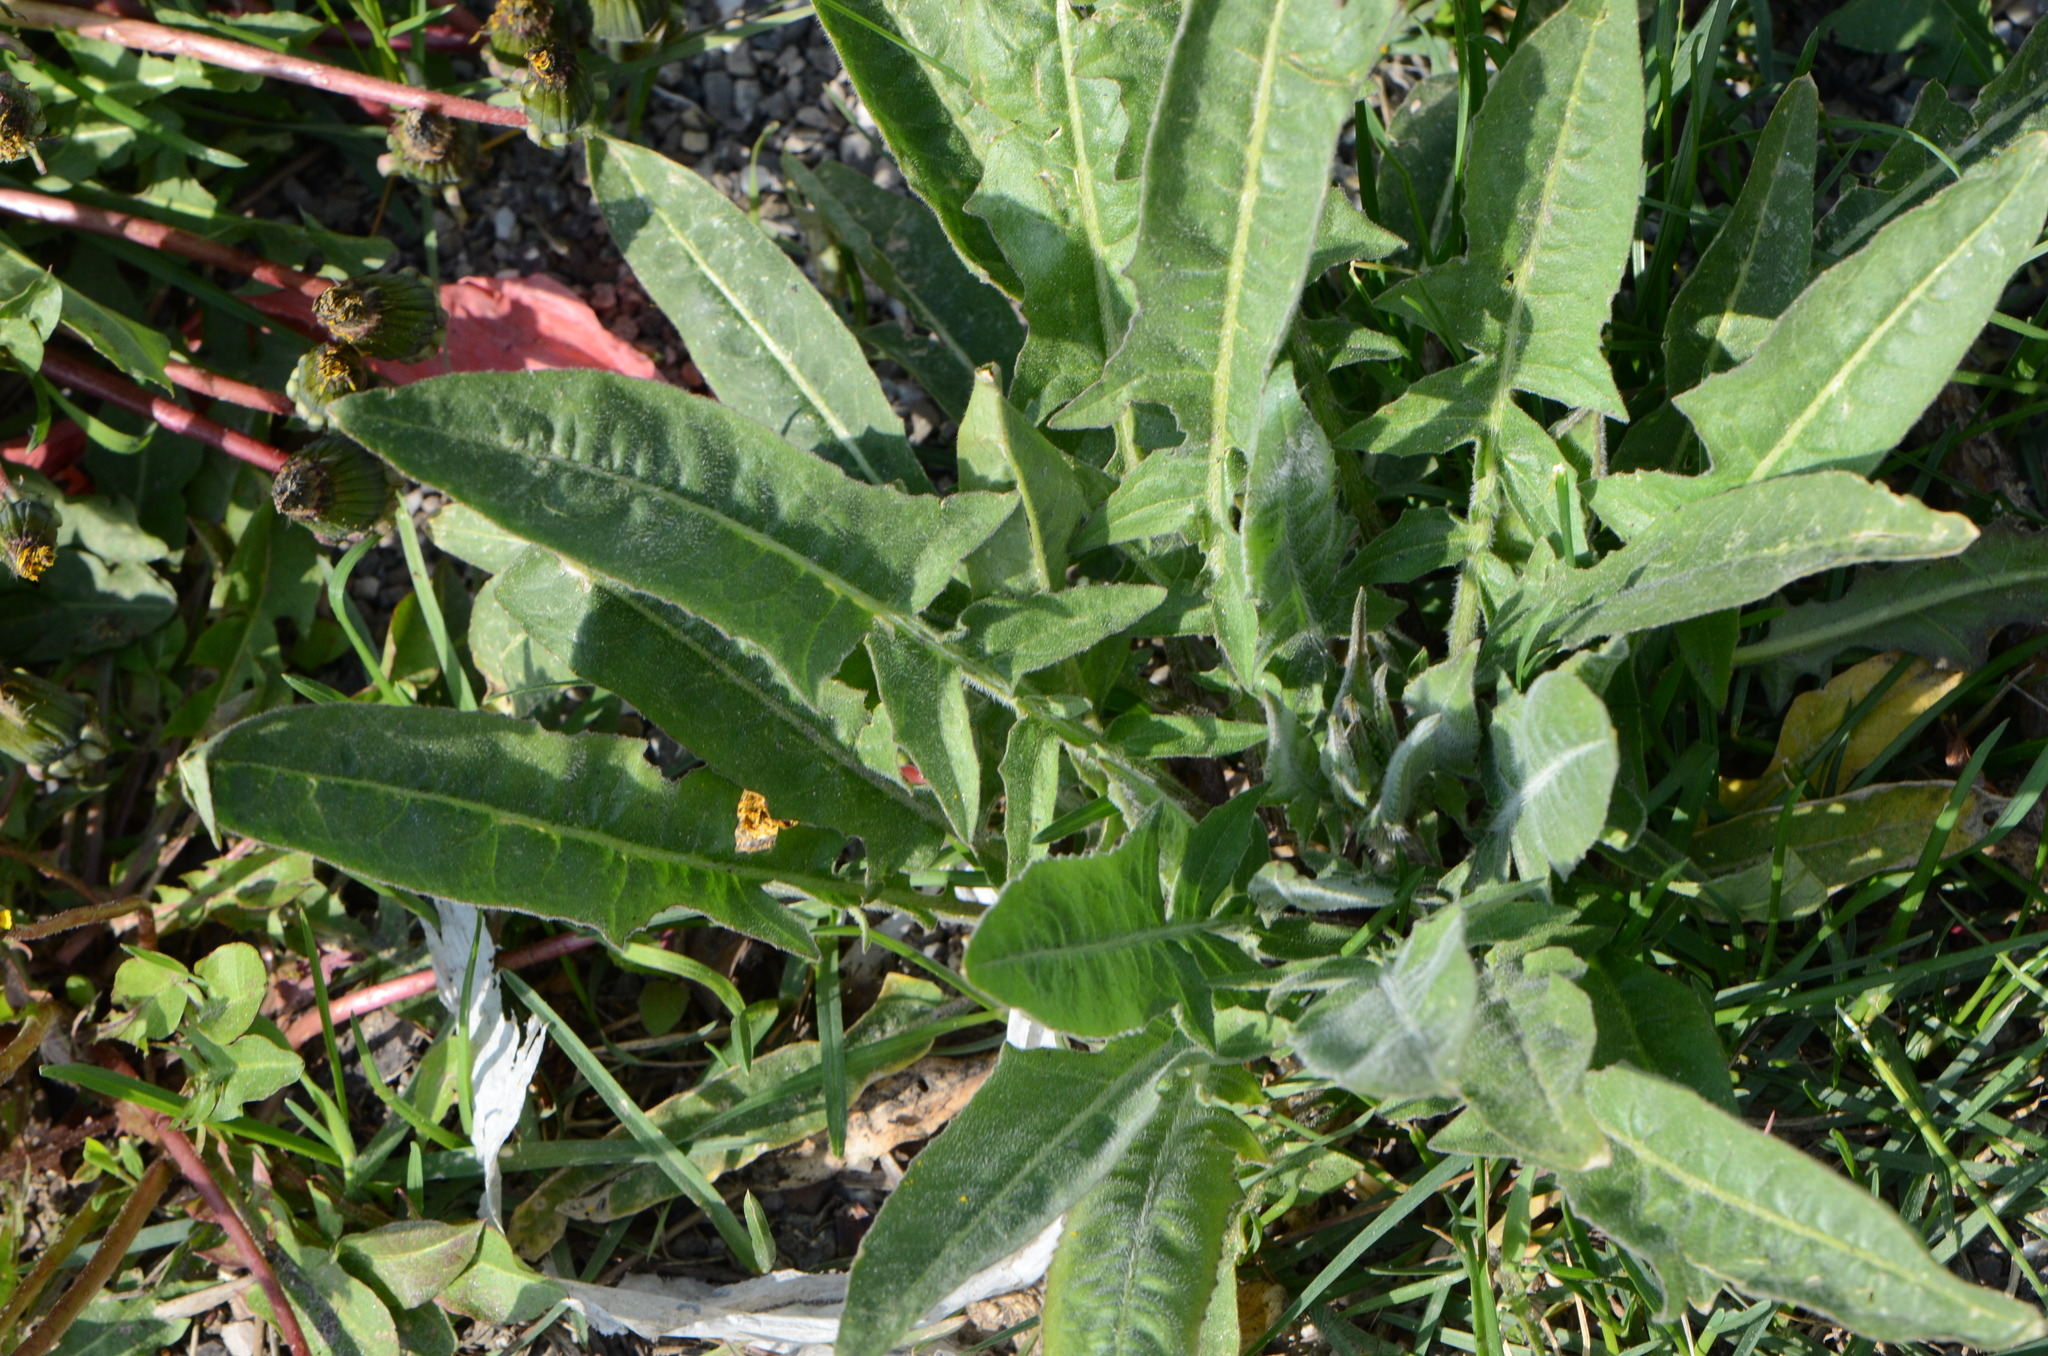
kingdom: Plantae
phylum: Tracheophyta
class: Magnoliopsida
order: Brassicales
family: Brassicaceae
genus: Bunias
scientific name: Bunias orientalis
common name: Warty-cabbage
